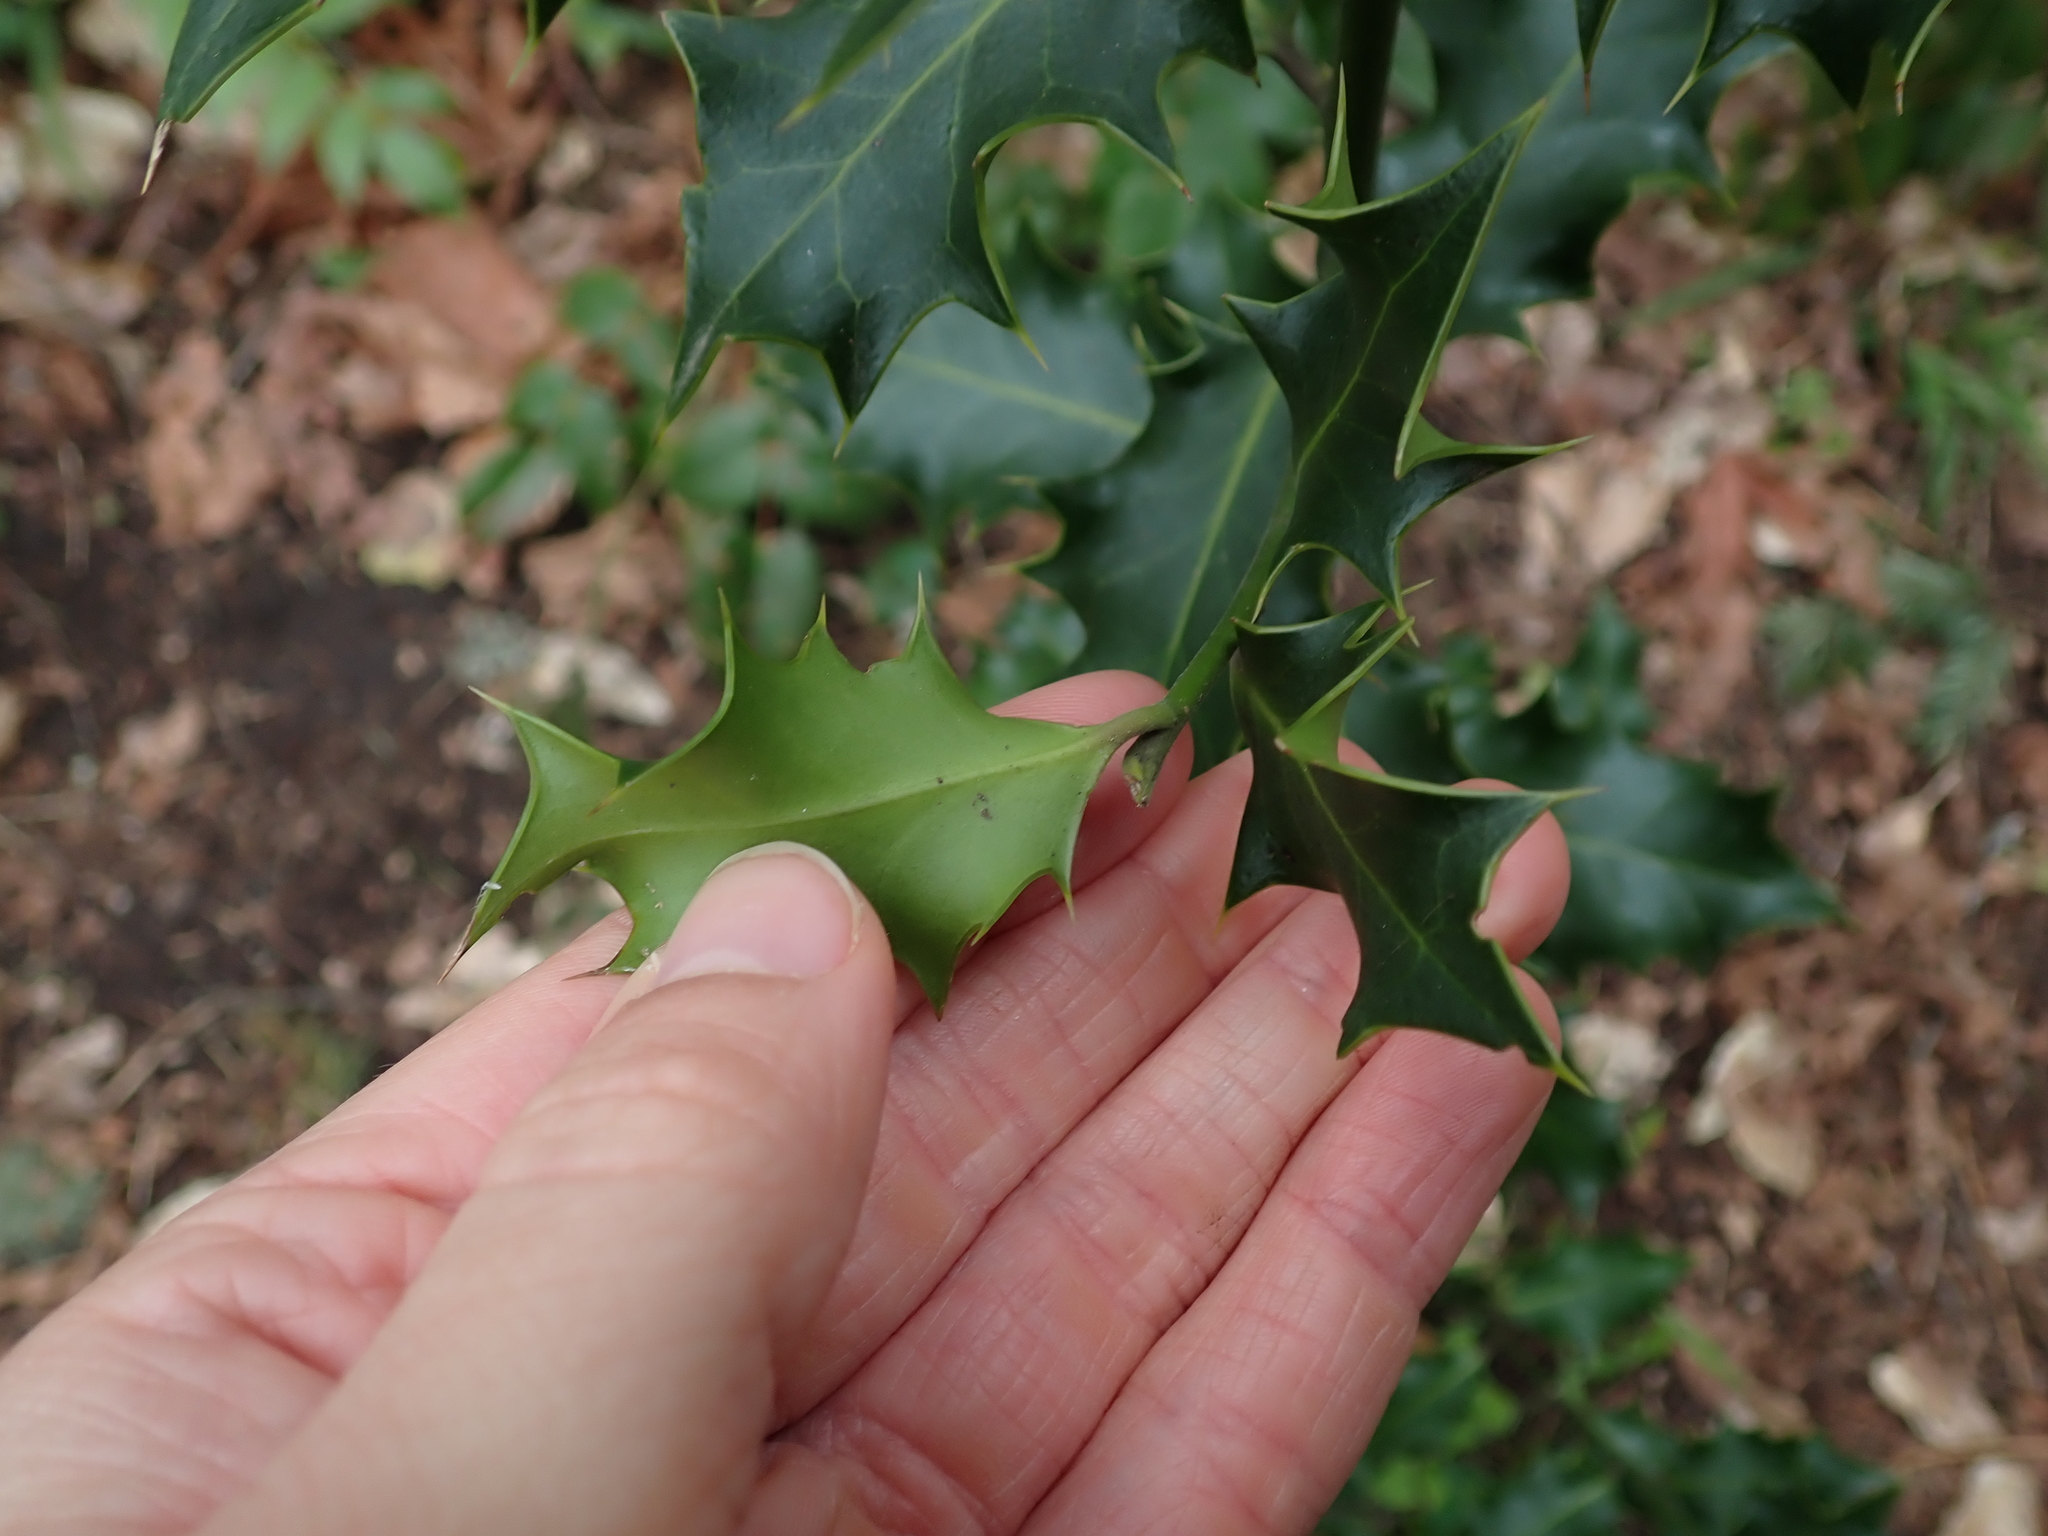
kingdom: Plantae
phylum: Tracheophyta
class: Magnoliopsida
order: Aquifoliales
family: Aquifoliaceae
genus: Ilex
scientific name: Ilex aquifolium
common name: English holly
